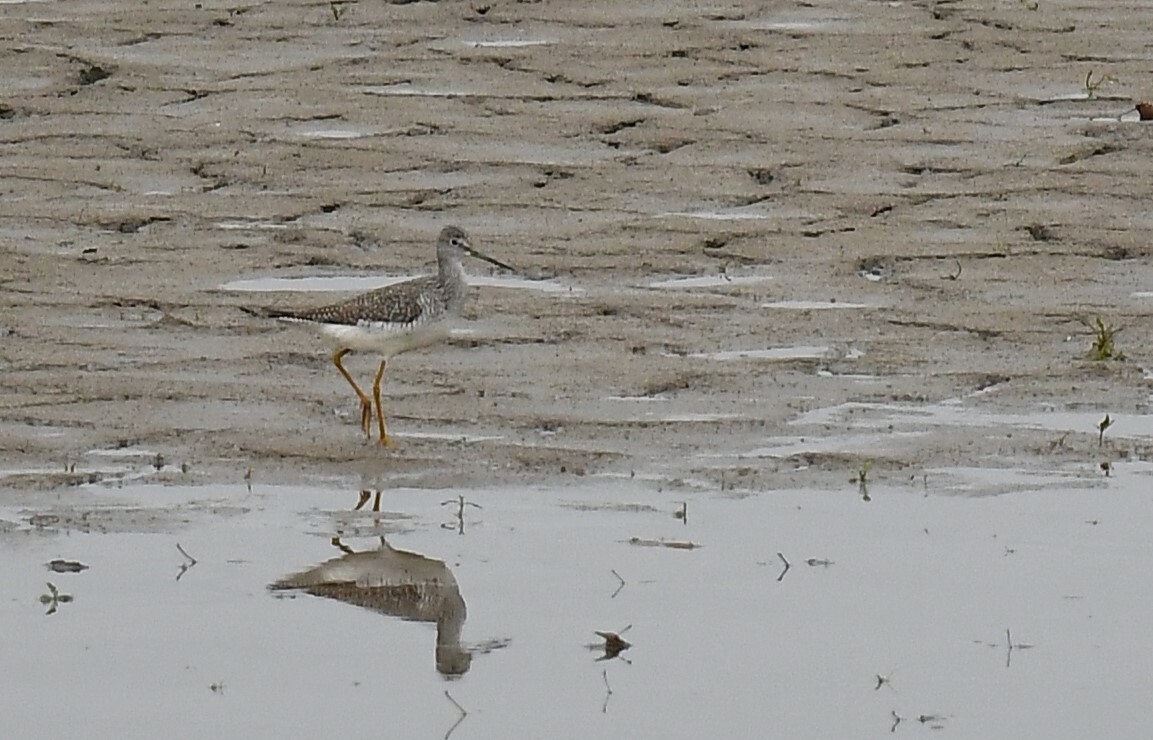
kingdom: Animalia
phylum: Chordata
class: Aves
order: Charadriiformes
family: Scolopacidae
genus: Tringa
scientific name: Tringa melanoleuca
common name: Greater yellowlegs
